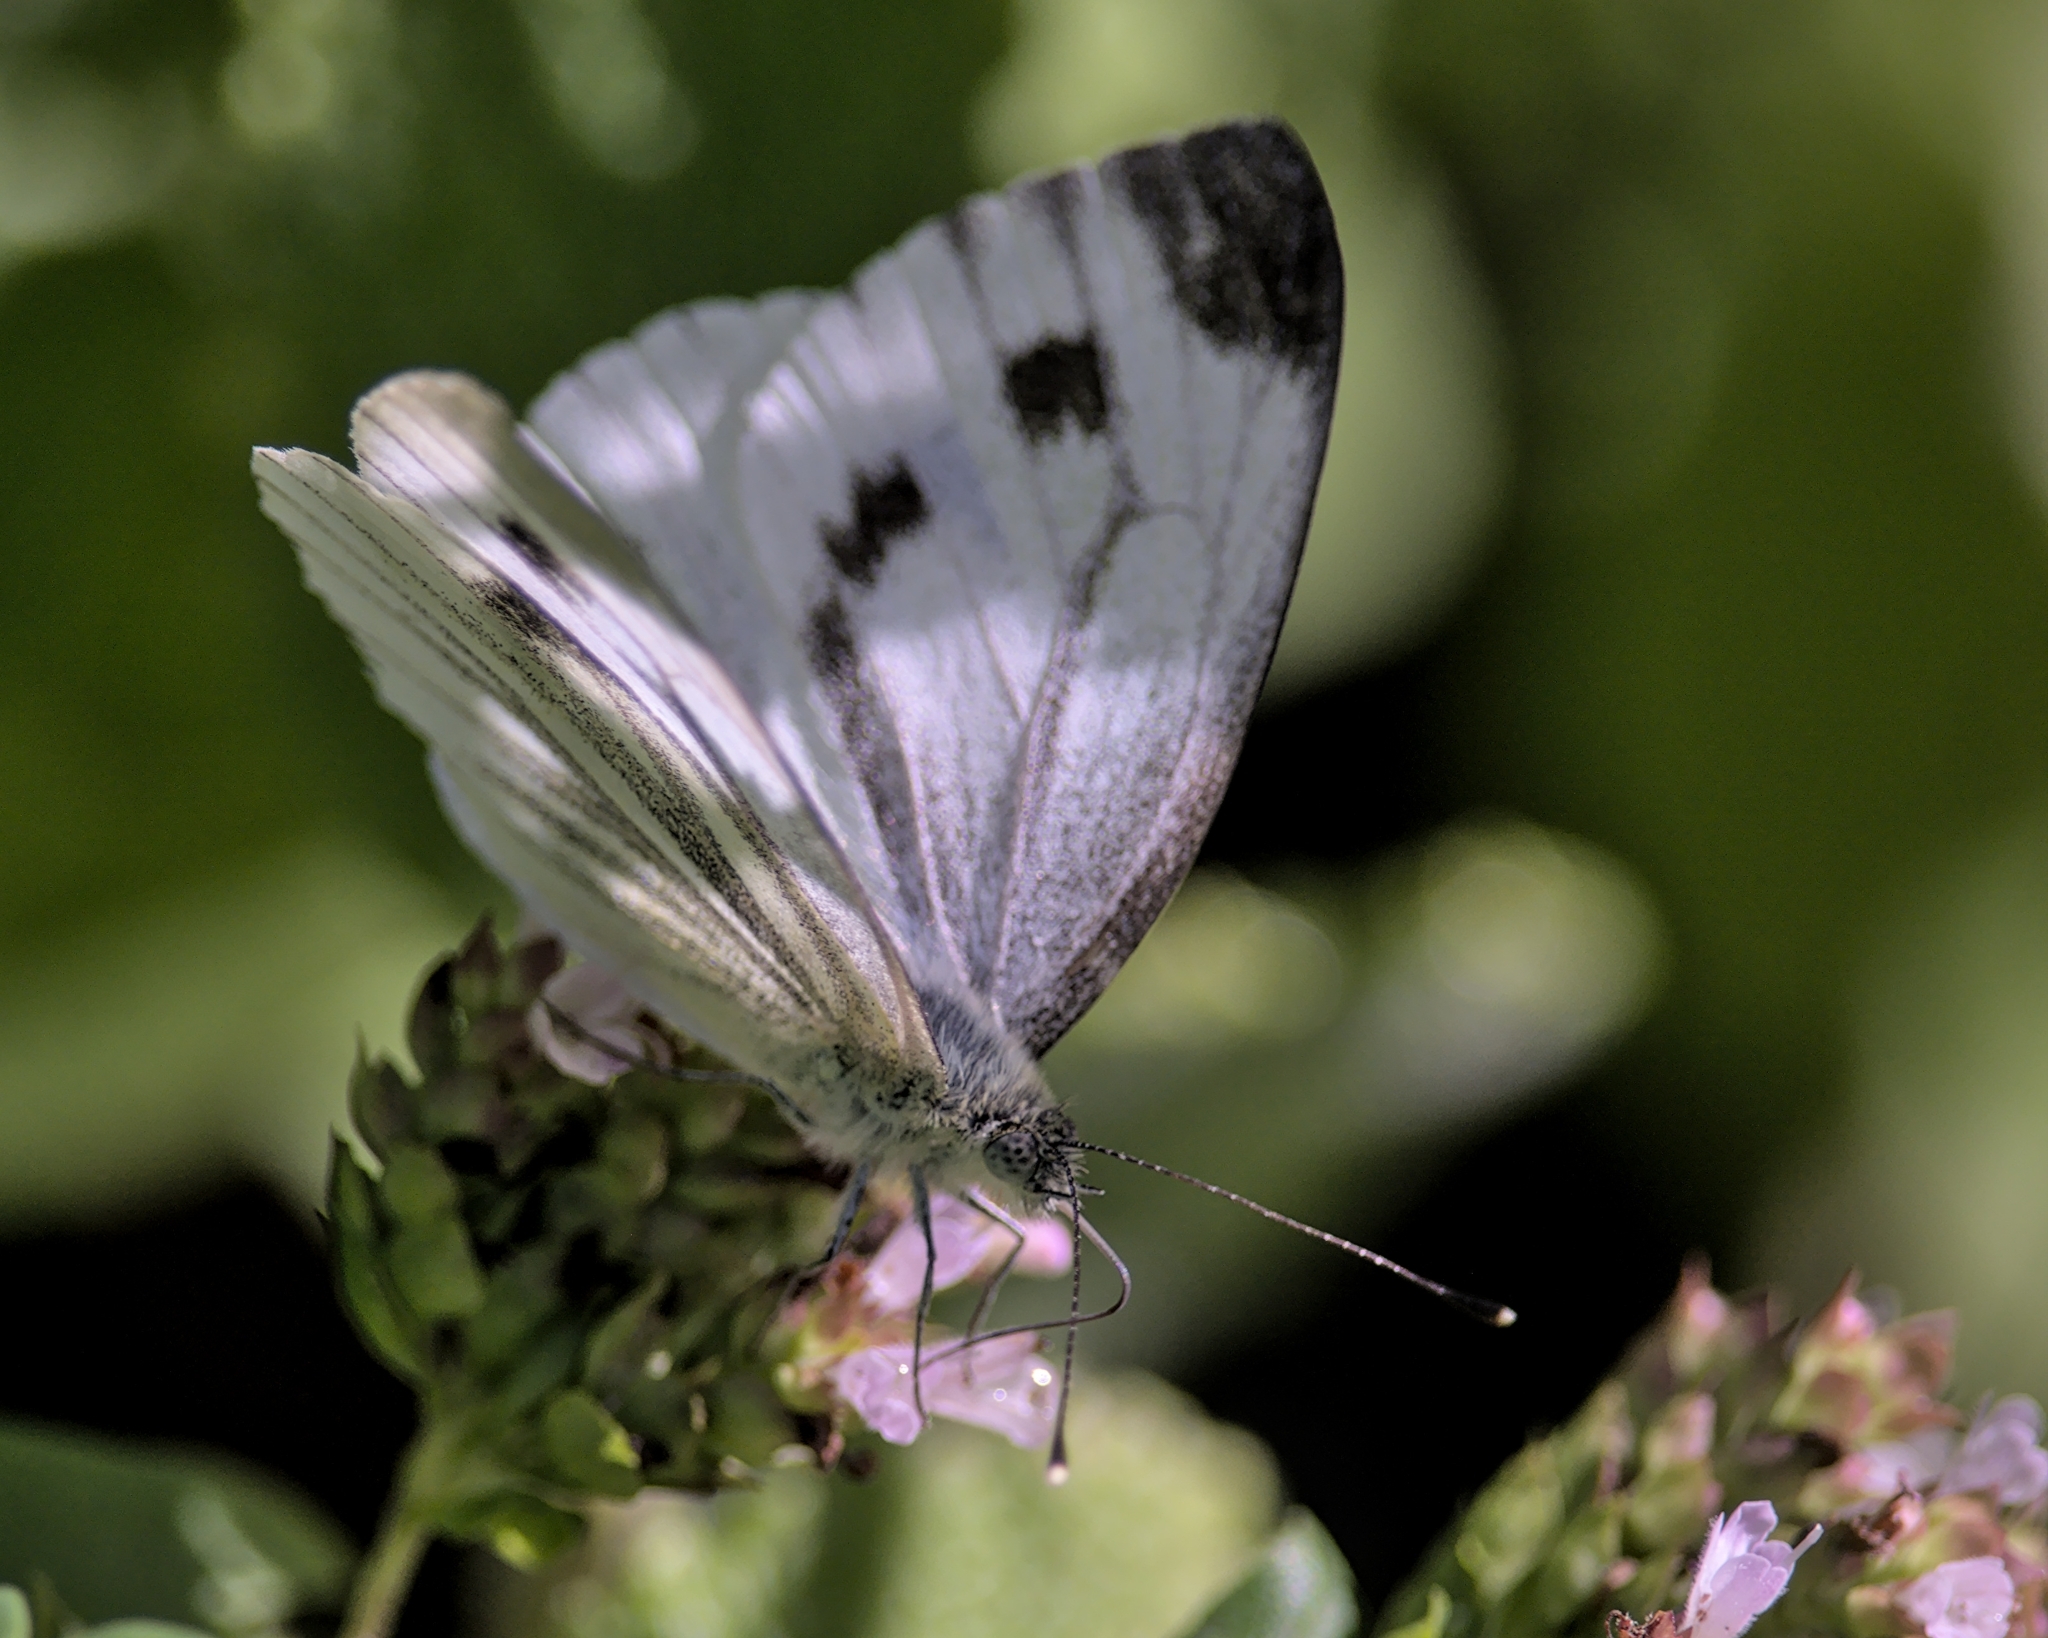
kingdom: Animalia
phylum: Arthropoda
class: Insecta
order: Lepidoptera
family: Pieridae
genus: Pieris
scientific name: Pieris napi
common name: Green-veined white
